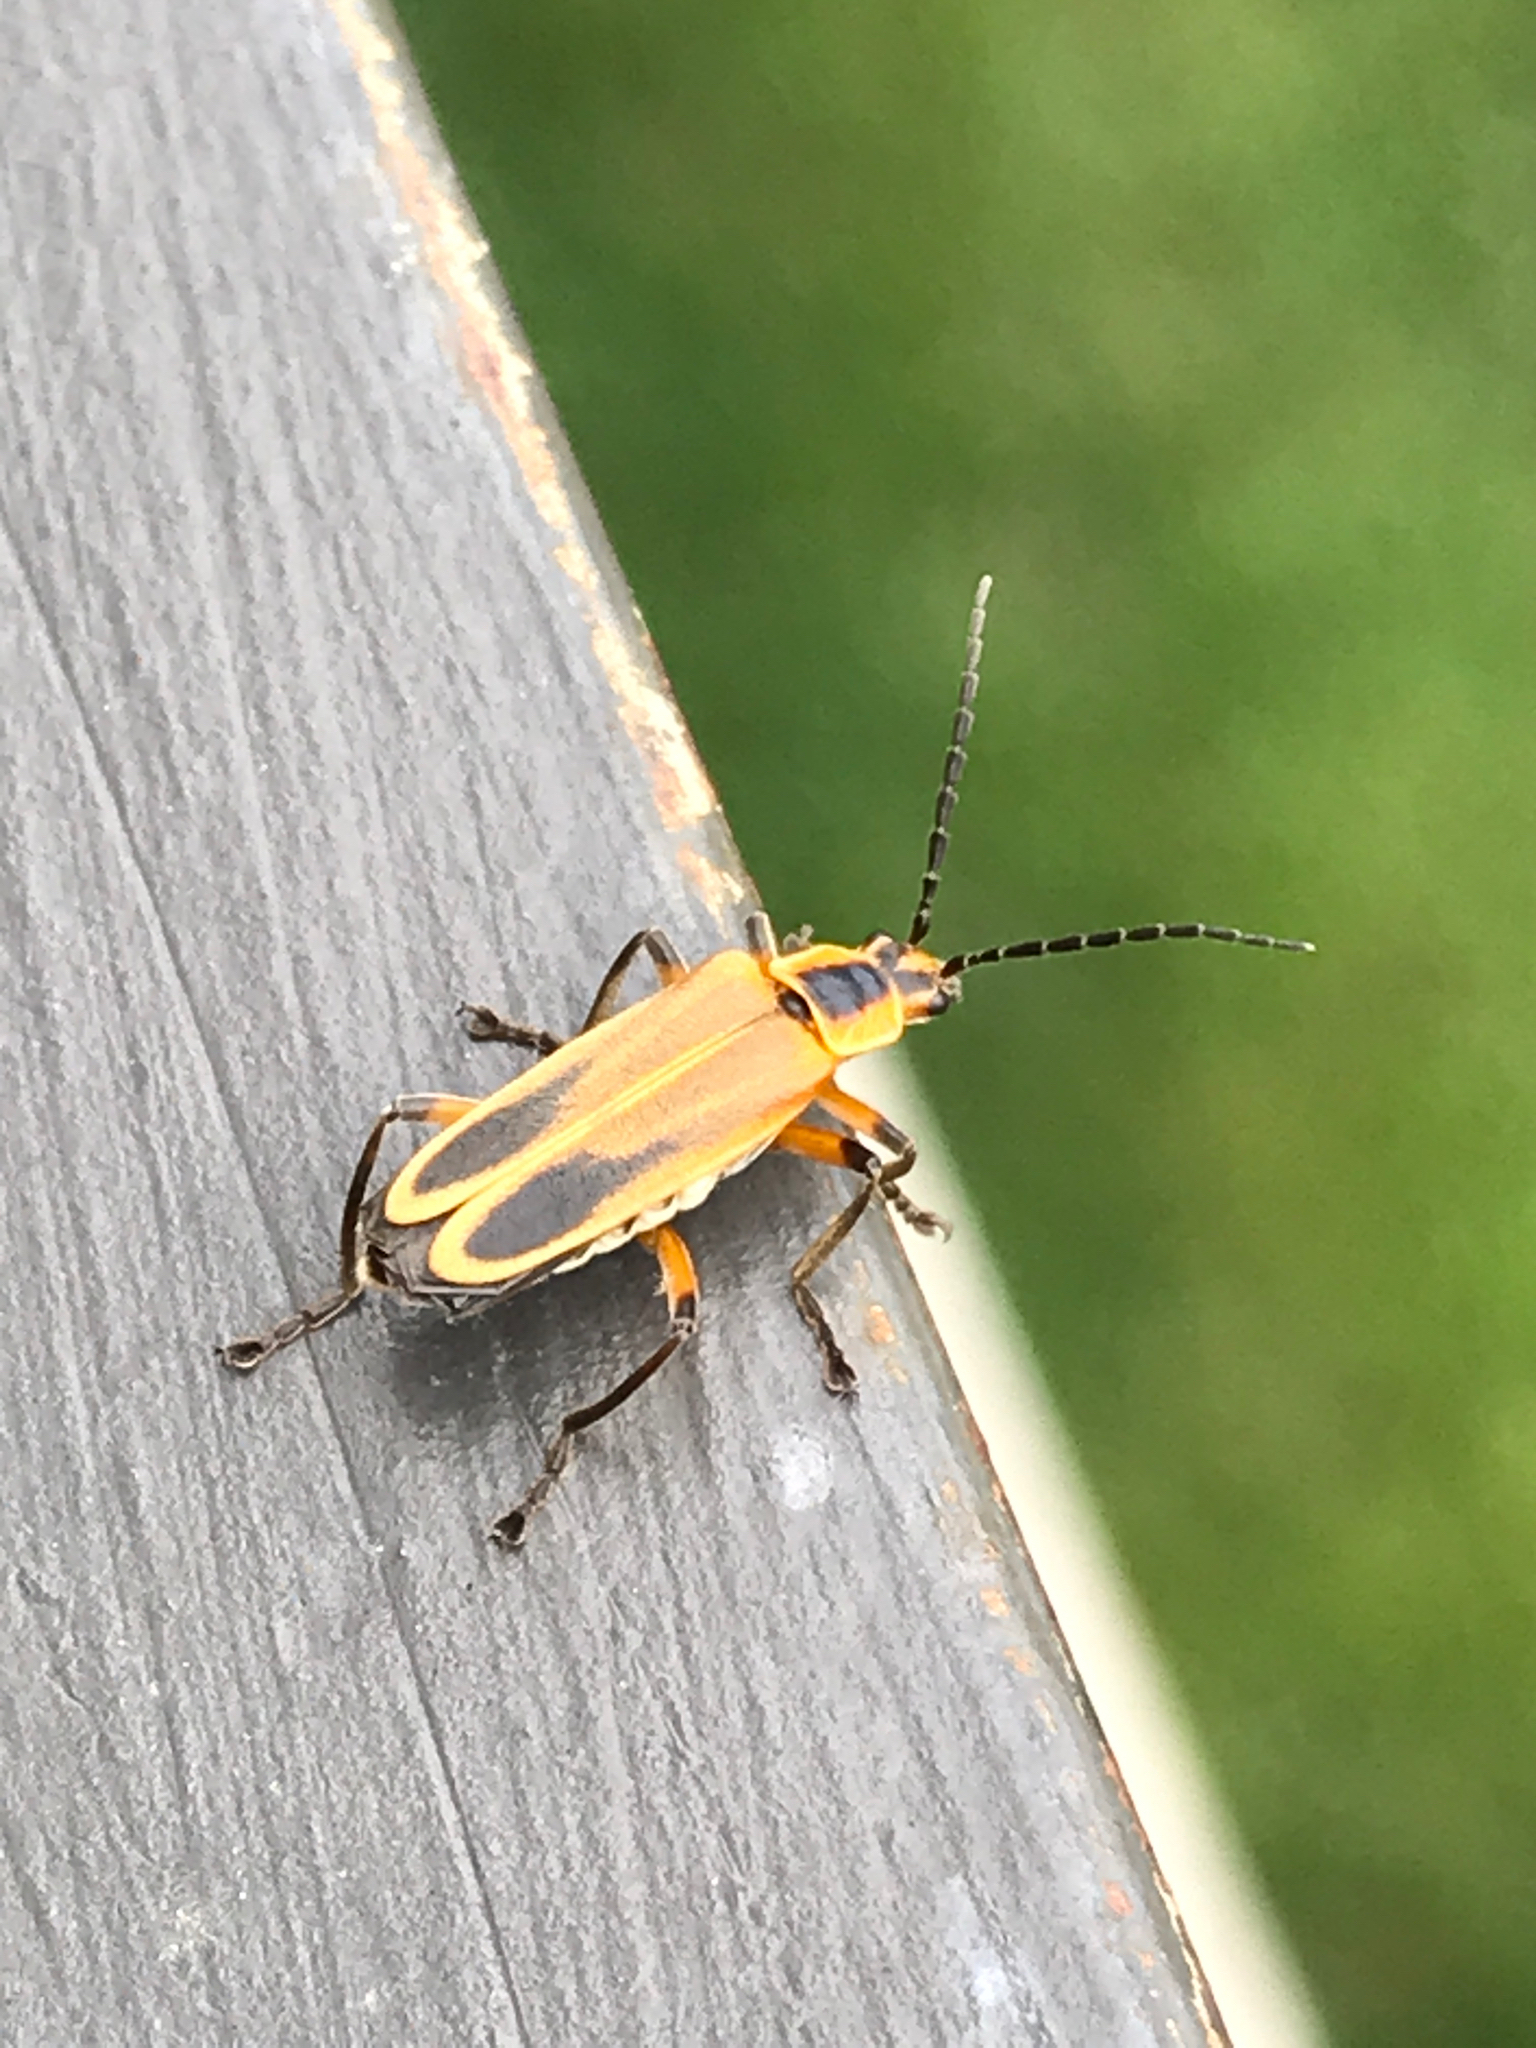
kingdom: Animalia
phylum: Arthropoda
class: Insecta
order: Coleoptera
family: Cantharidae
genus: Chauliognathus
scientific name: Chauliognathus marginatus
